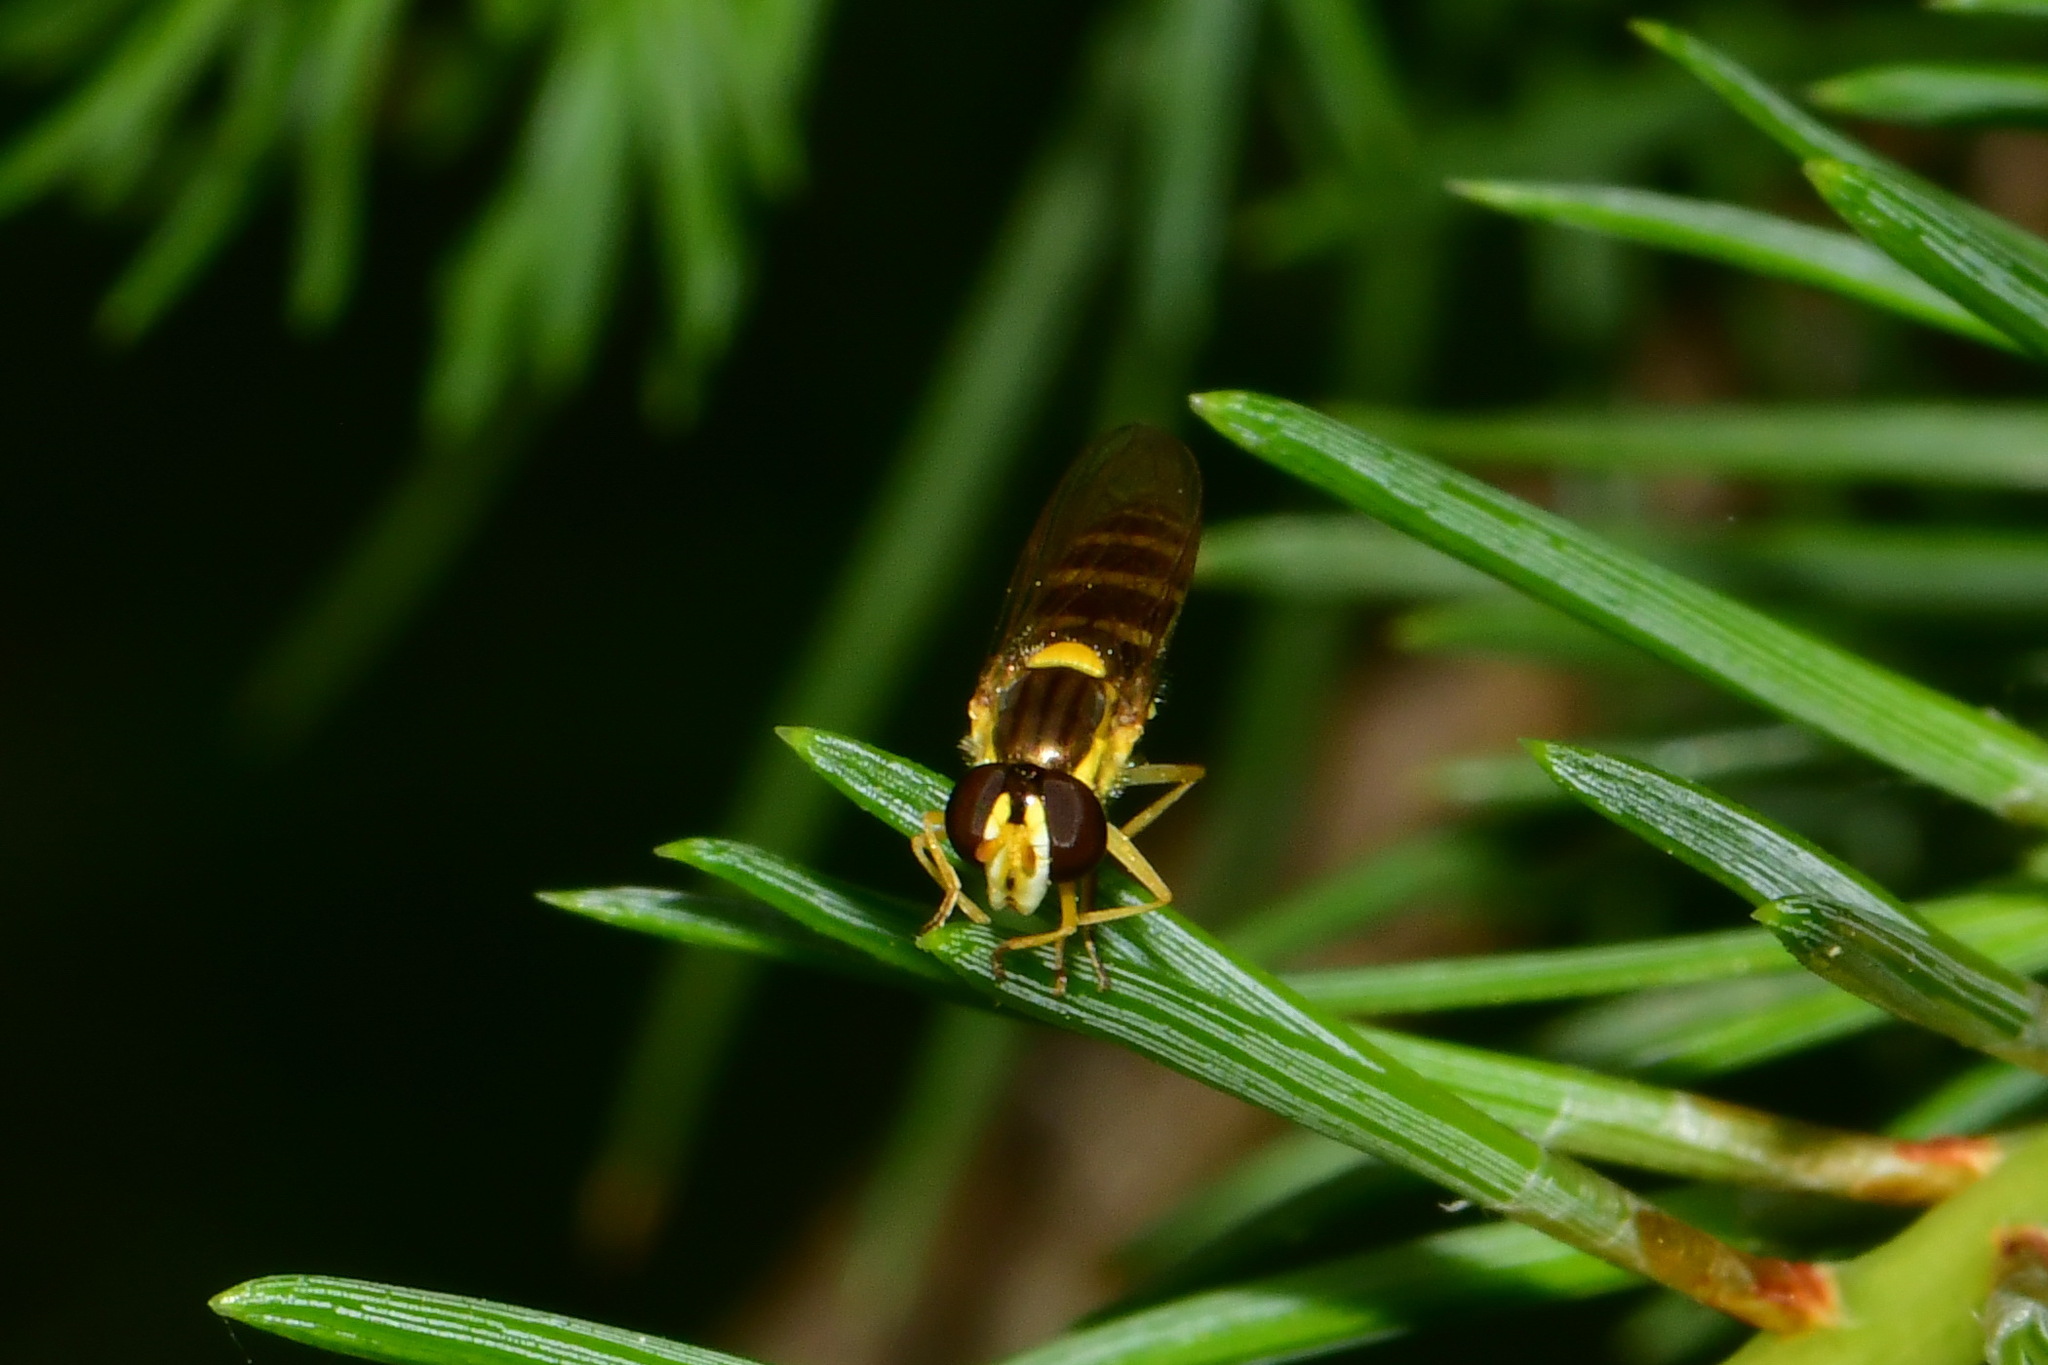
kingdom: Animalia
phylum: Arthropoda
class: Insecta
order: Diptera
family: Syrphidae
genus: Sphaerophoria
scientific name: Sphaerophoria
